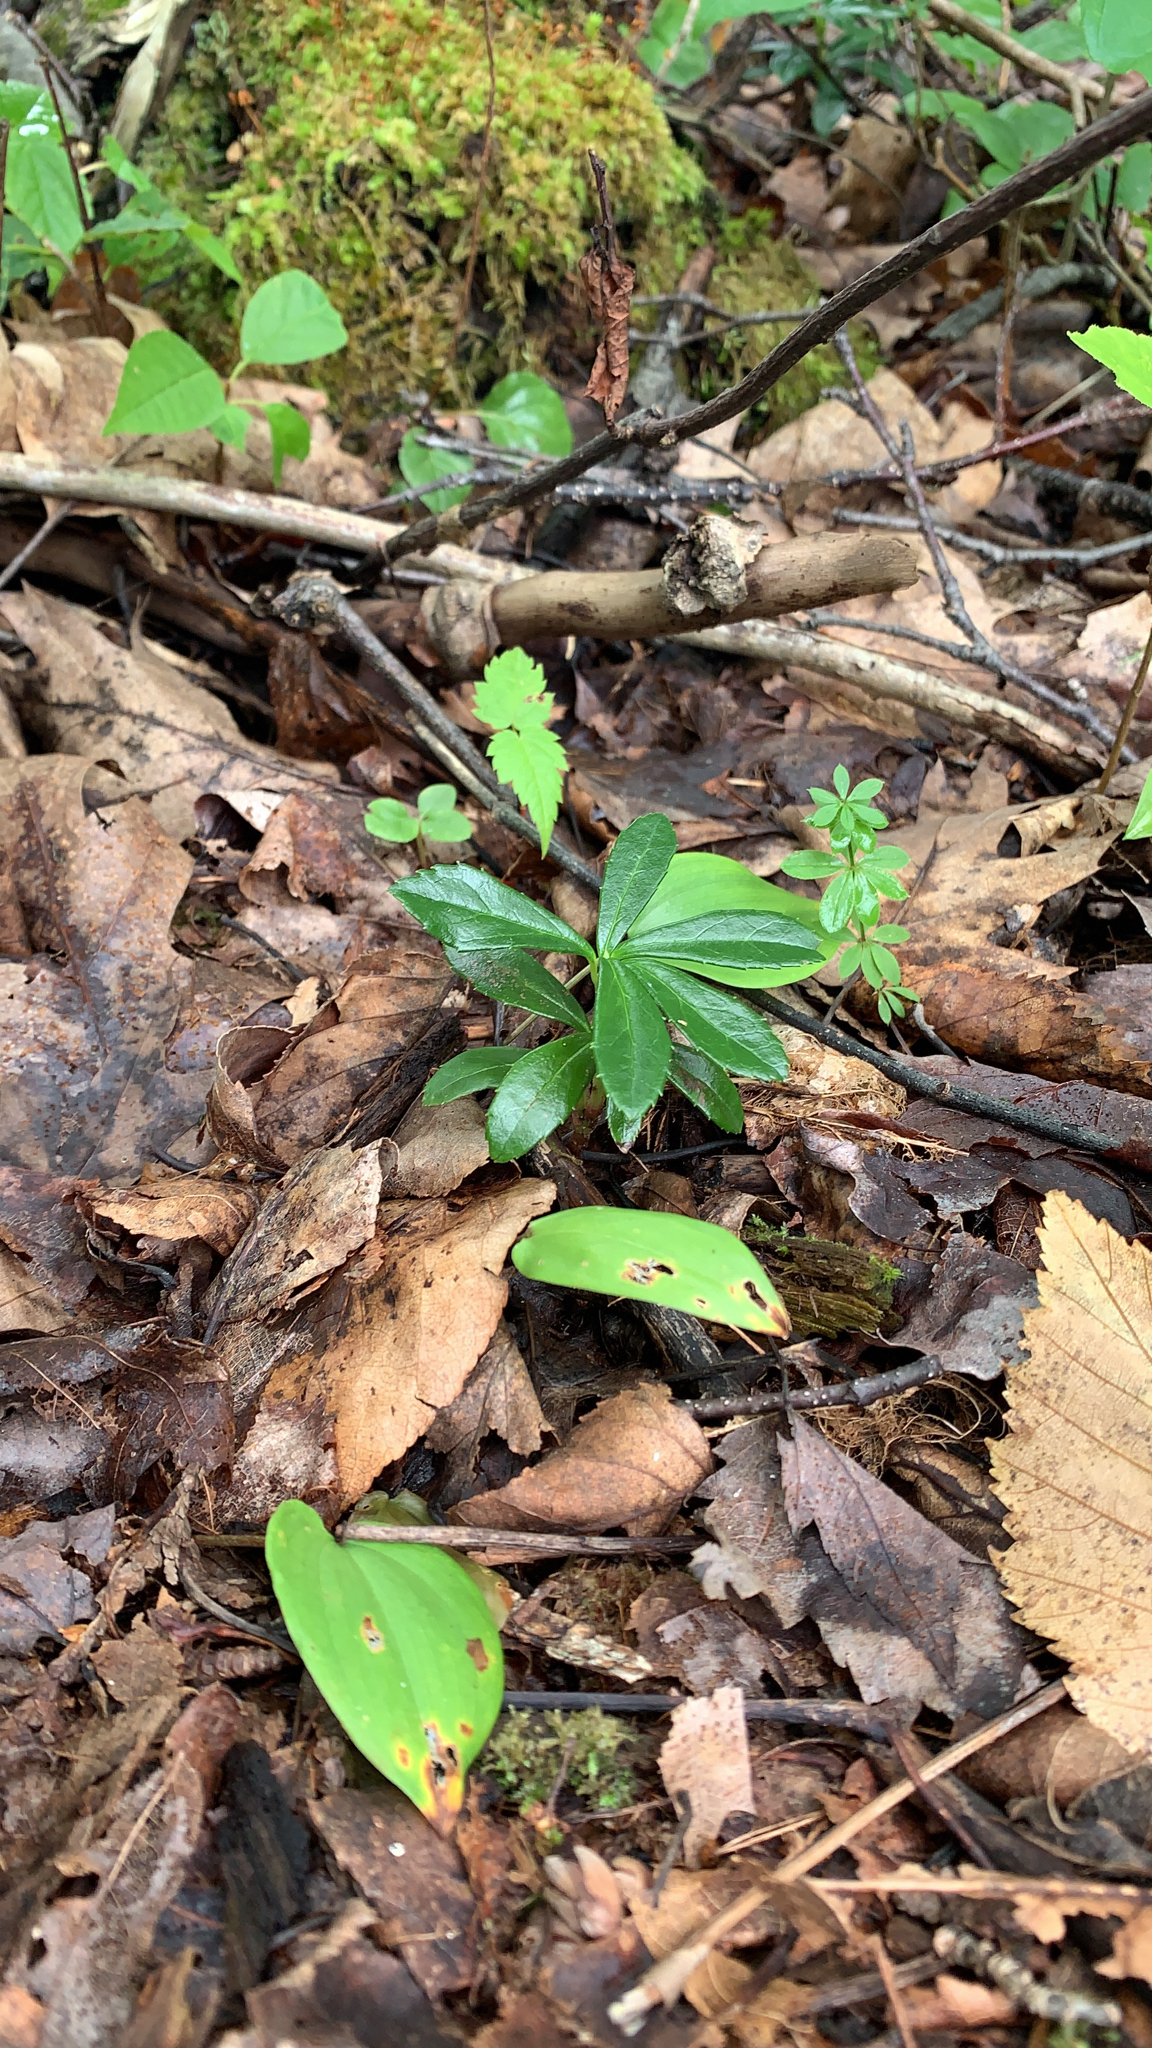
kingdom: Plantae
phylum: Tracheophyta
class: Magnoliopsida
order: Ericales
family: Ericaceae
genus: Chimaphila
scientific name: Chimaphila umbellata
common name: Pipsissewa
